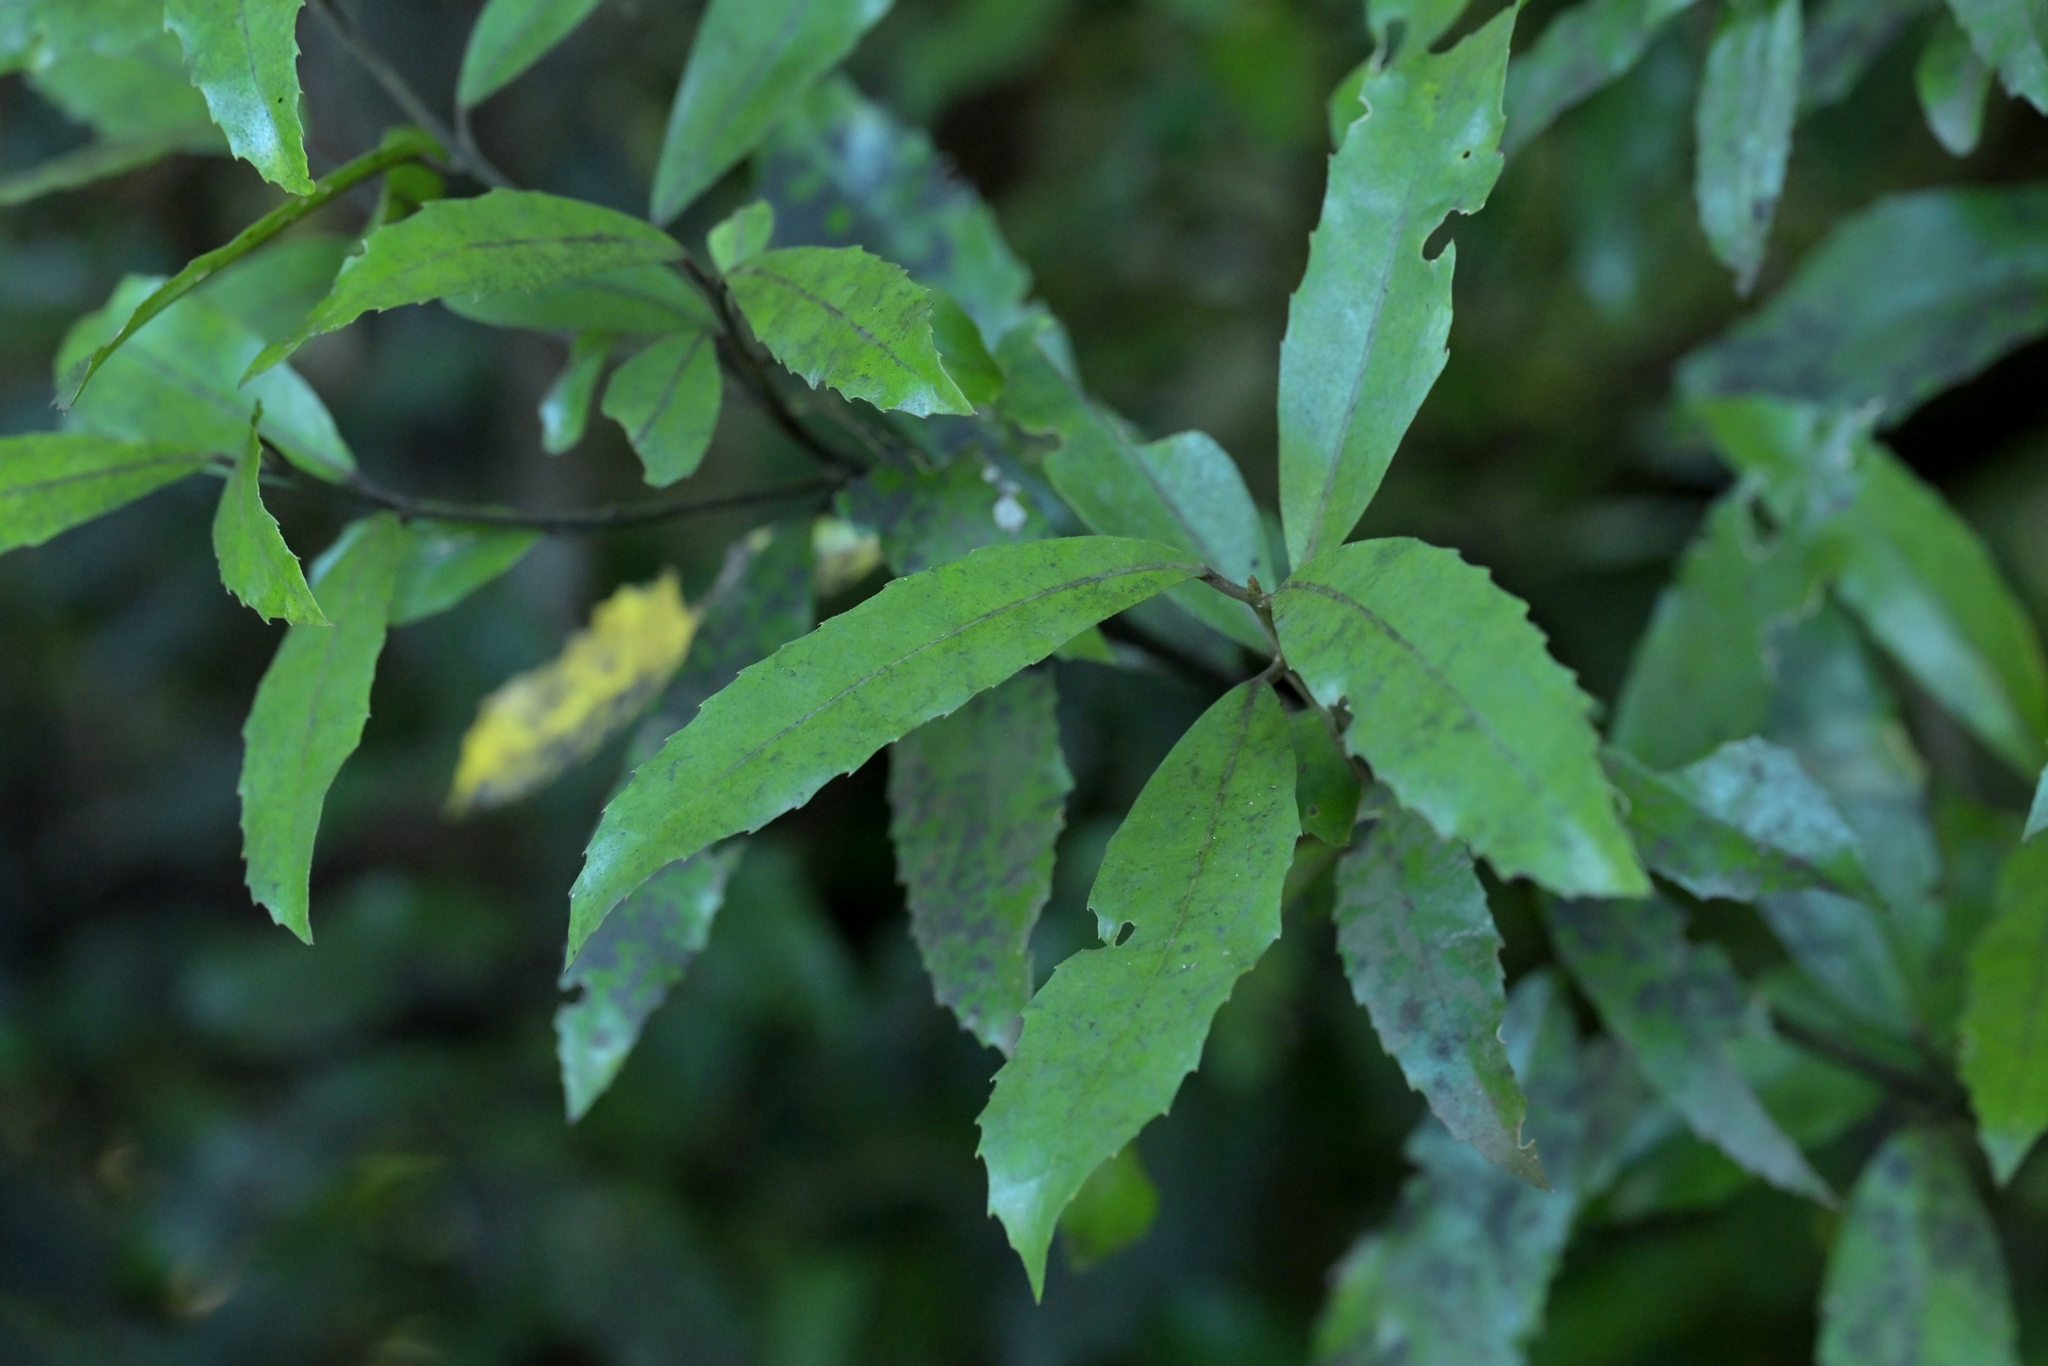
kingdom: Plantae
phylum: Tracheophyta
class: Magnoliopsida
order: Laurales
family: Monimiaceae
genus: Hedycarya
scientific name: Hedycarya arborea
